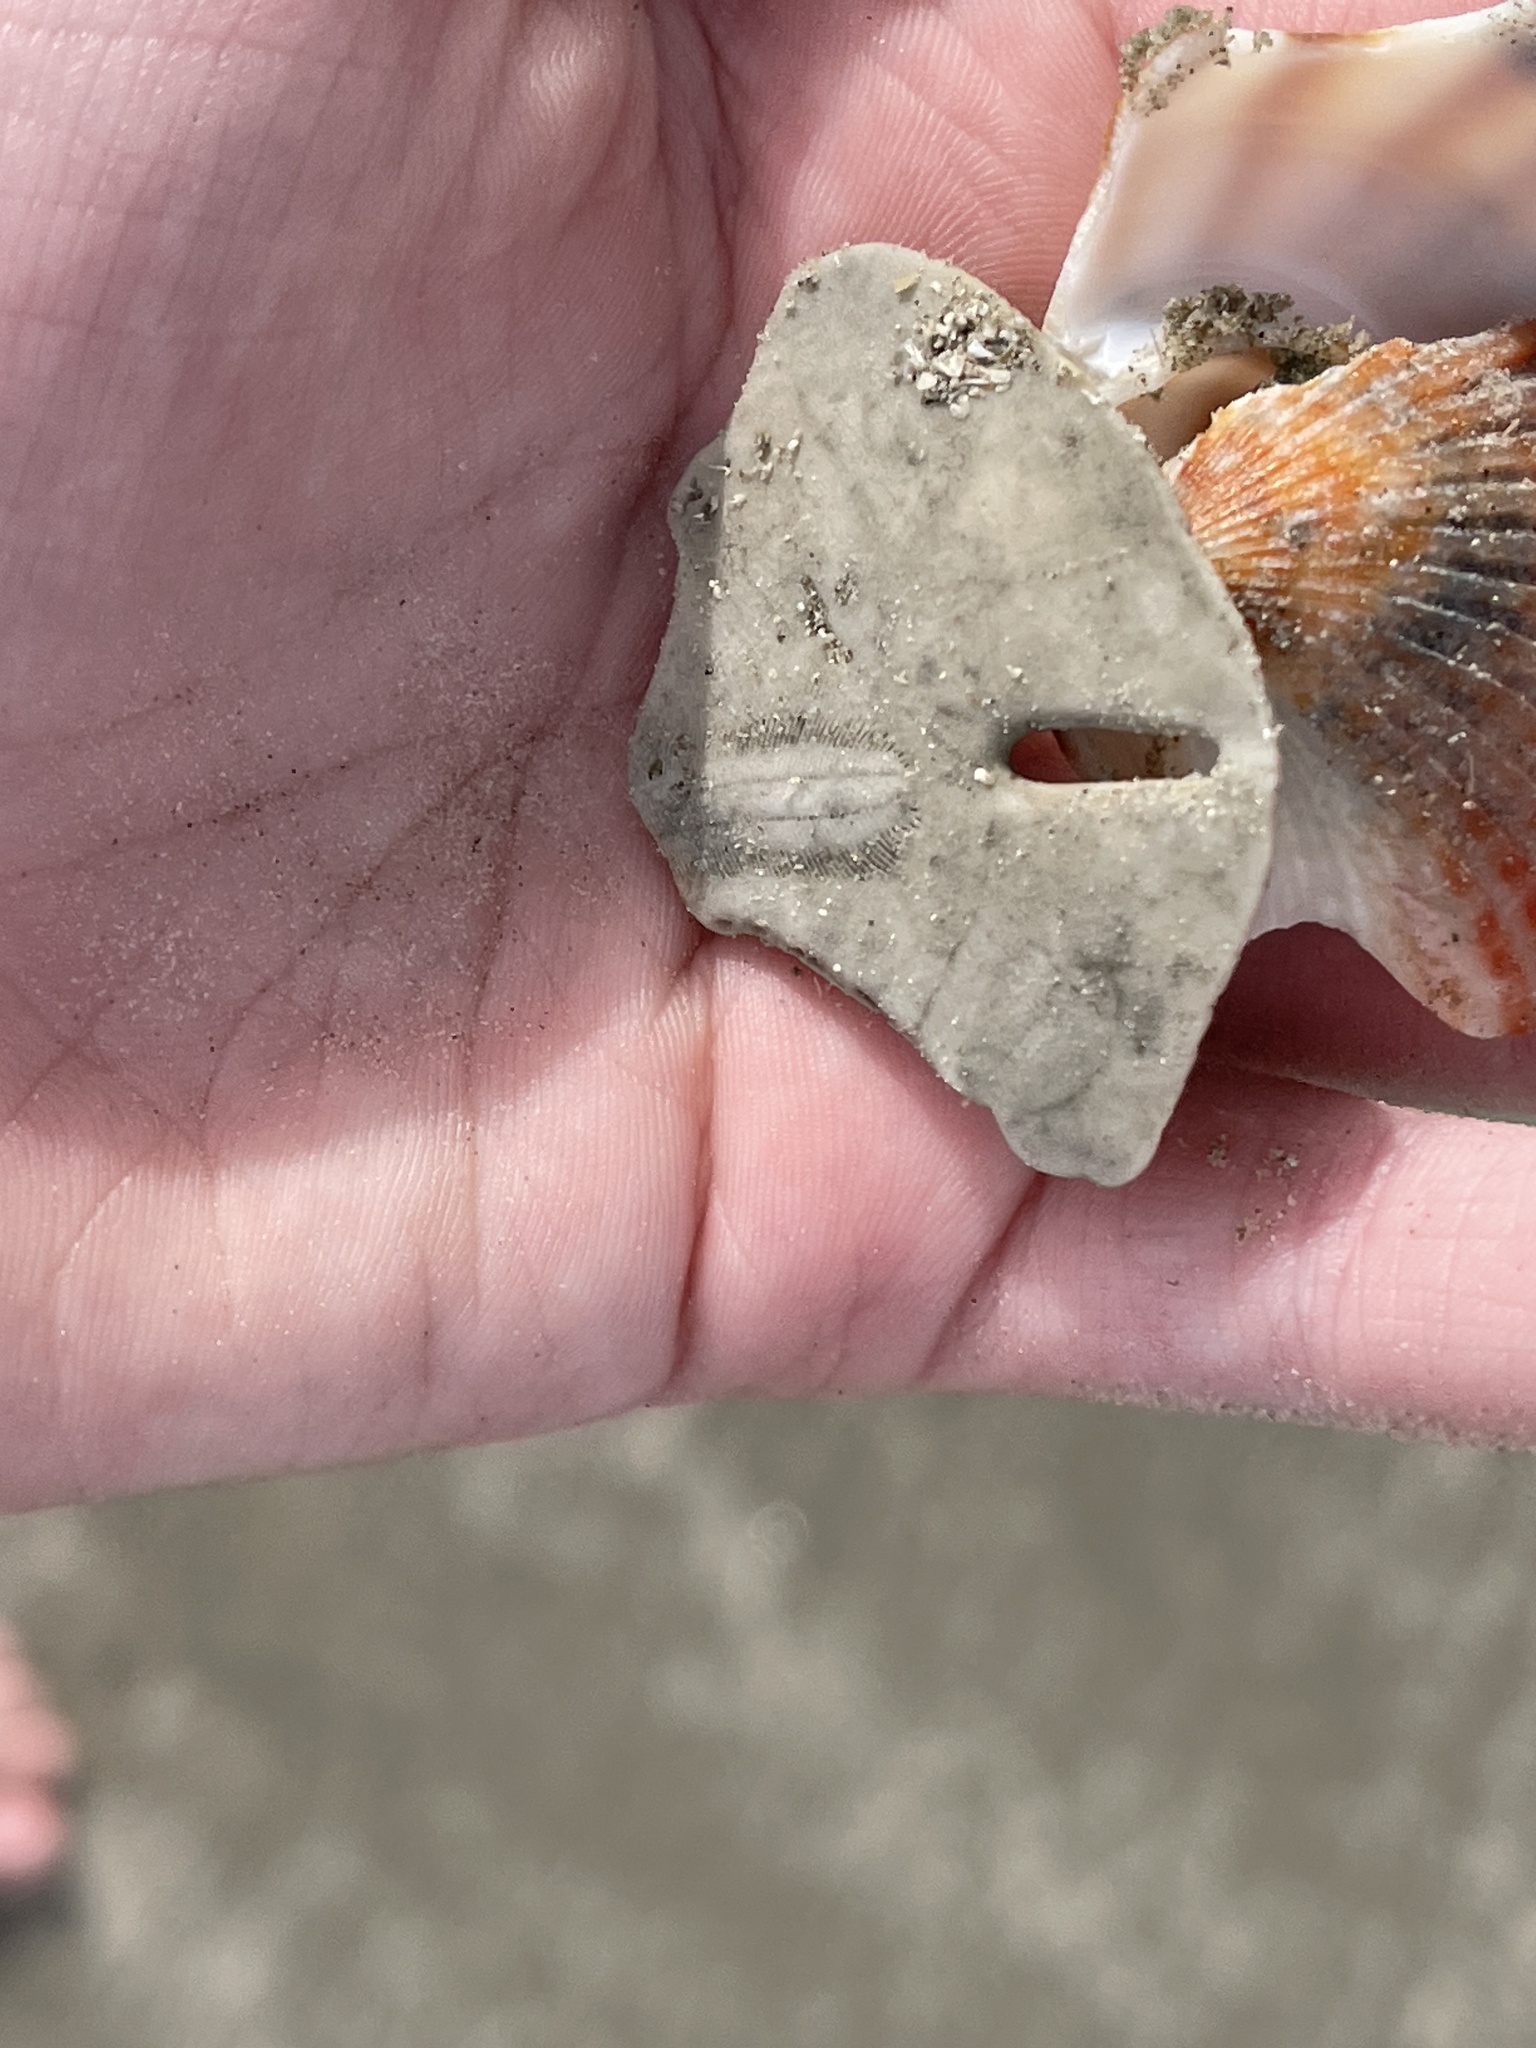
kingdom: Animalia
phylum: Echinodermata
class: Echinoidea
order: Echinolampadacea
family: Mellitidae
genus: Mellita
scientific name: Mellita quinquiesperforata
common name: Sand dollar
